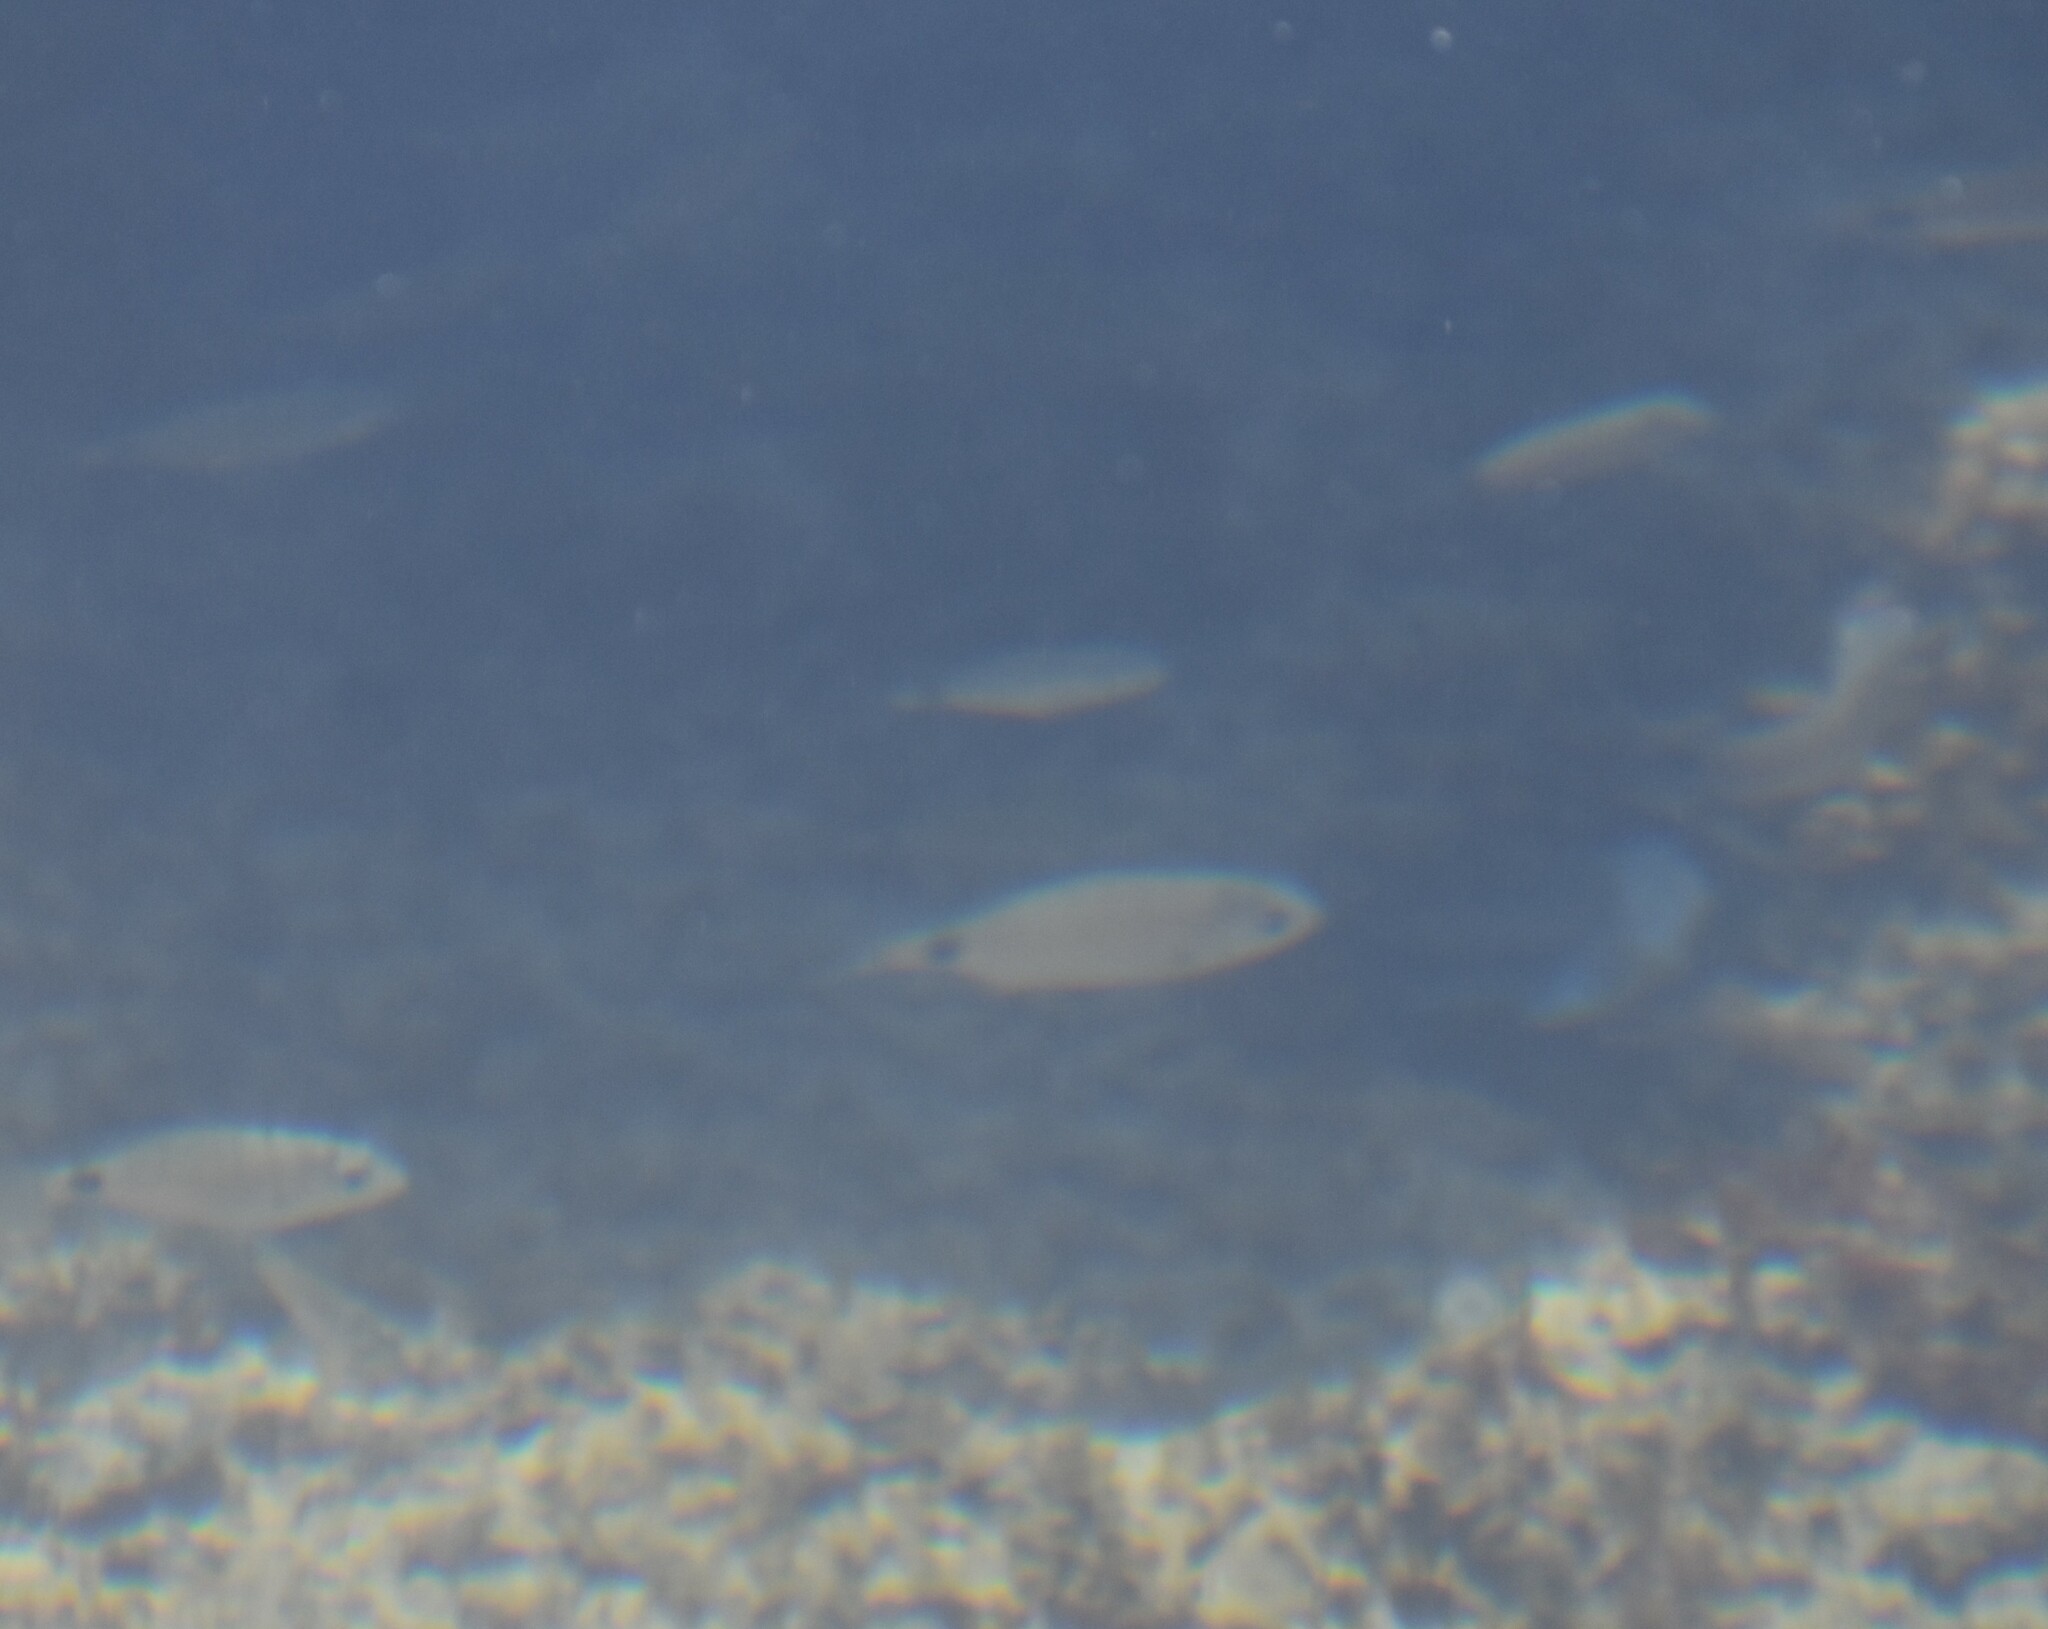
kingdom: Animalia
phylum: Chordata
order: Perciformes
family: Sparidae
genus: Diplodus
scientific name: Diplodus capensis
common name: Blacktail
